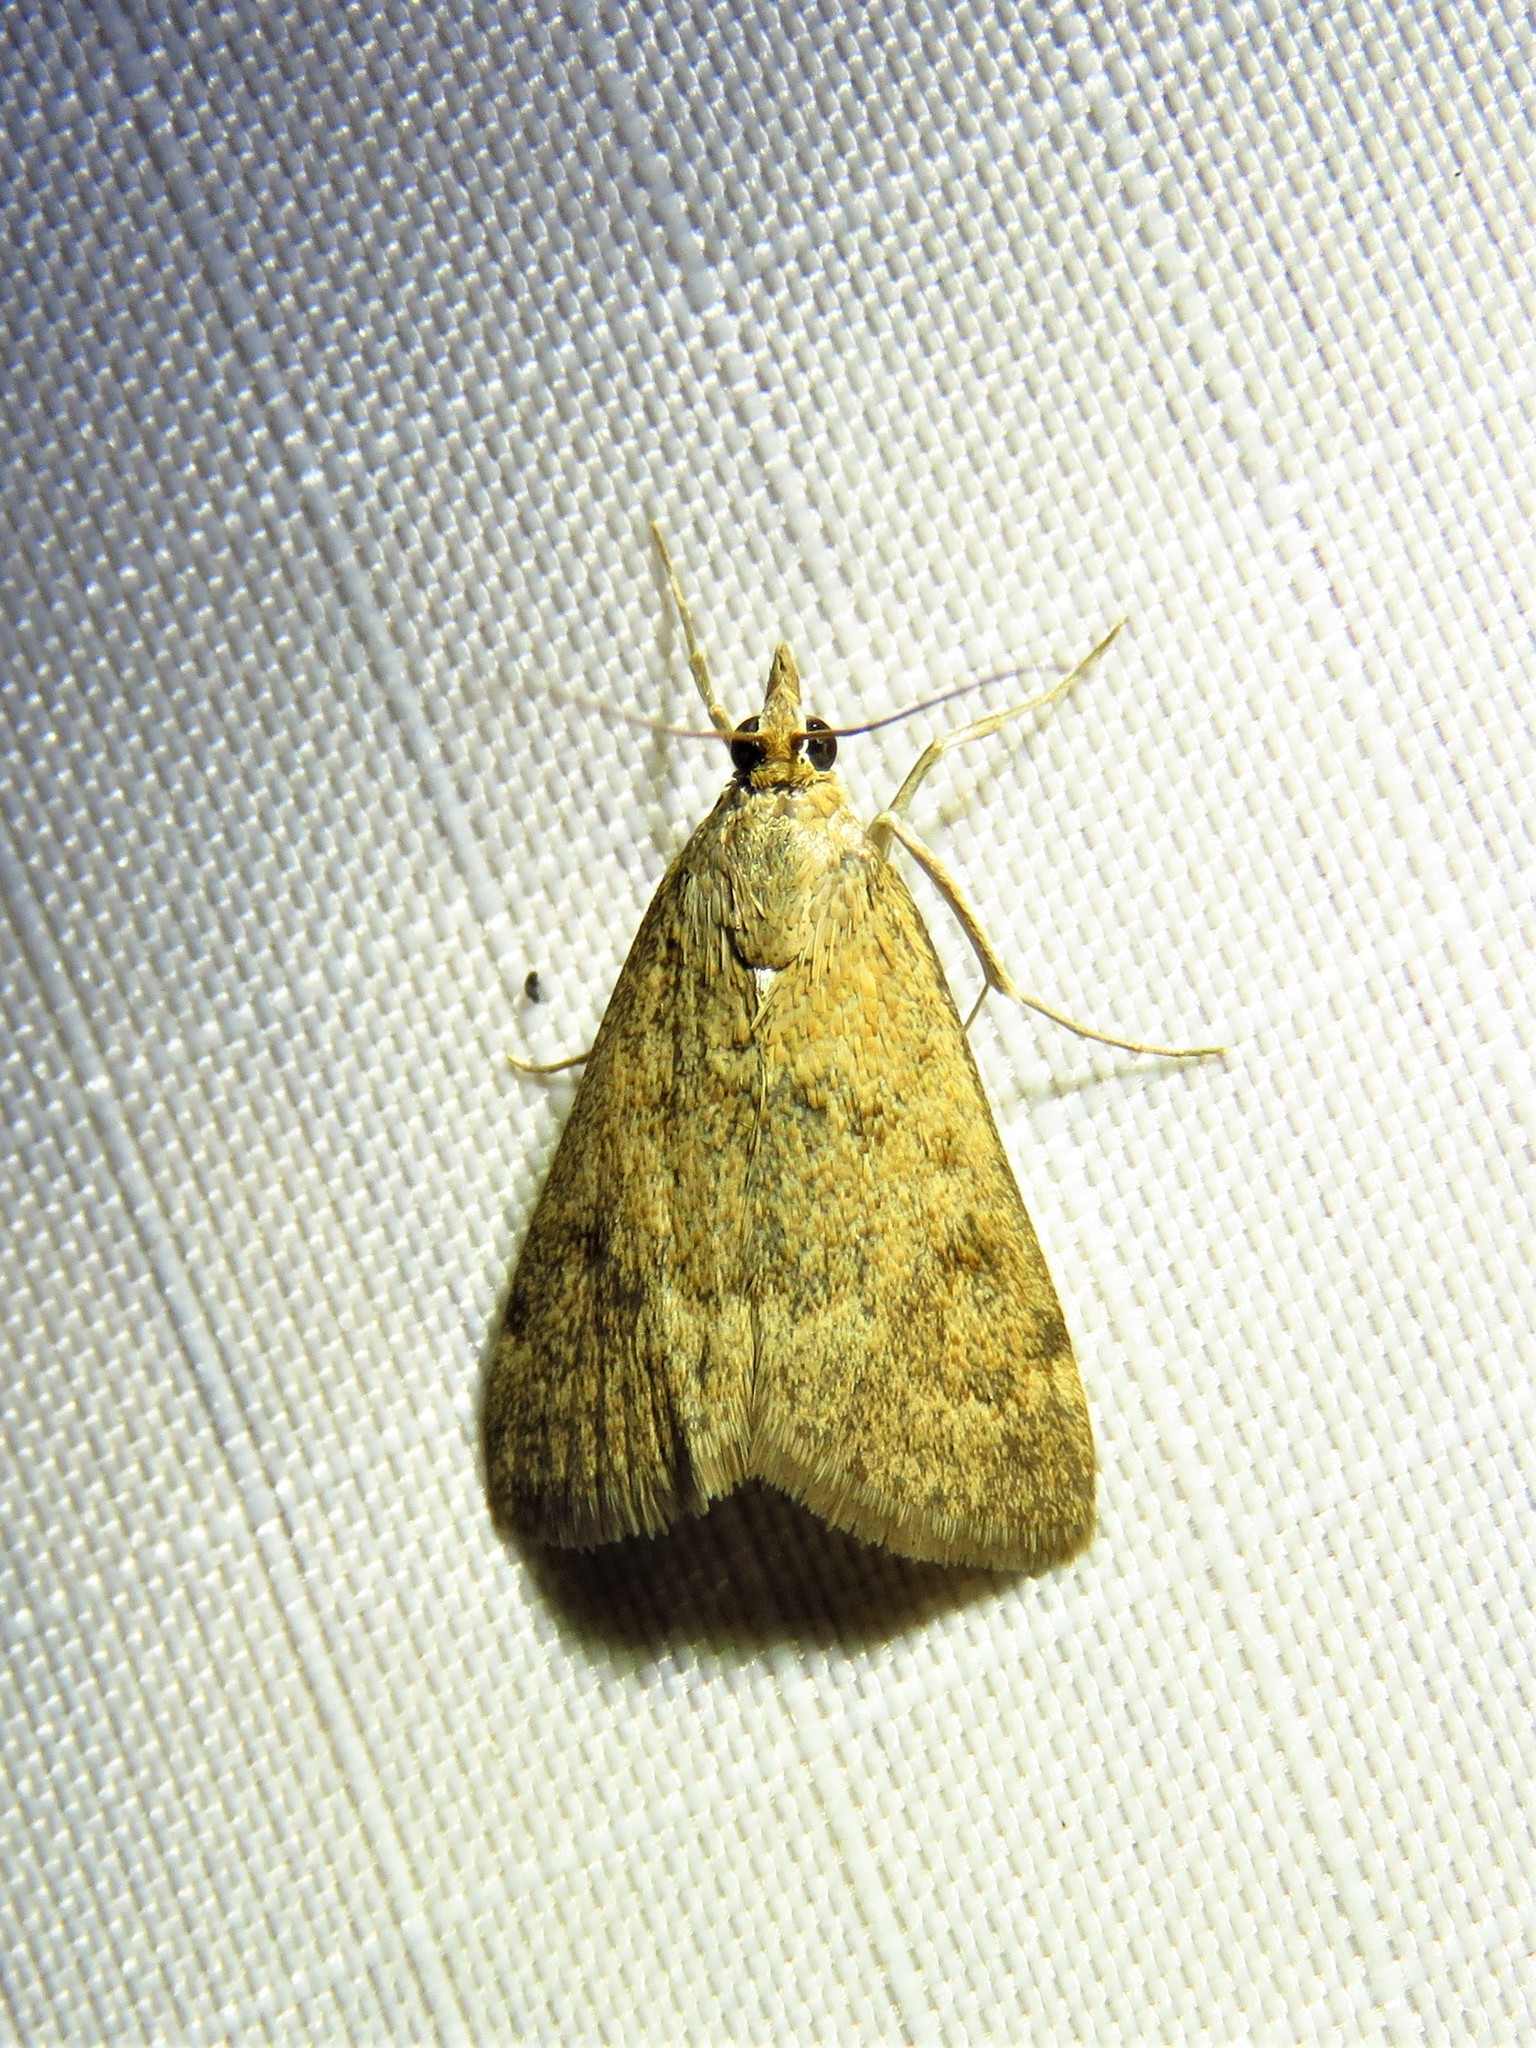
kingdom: Animalia
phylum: Arthropoda
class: Insecta
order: Lepidoptera
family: Crambidae
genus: Achyra
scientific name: Achyra rantalis
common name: Garden webworm
